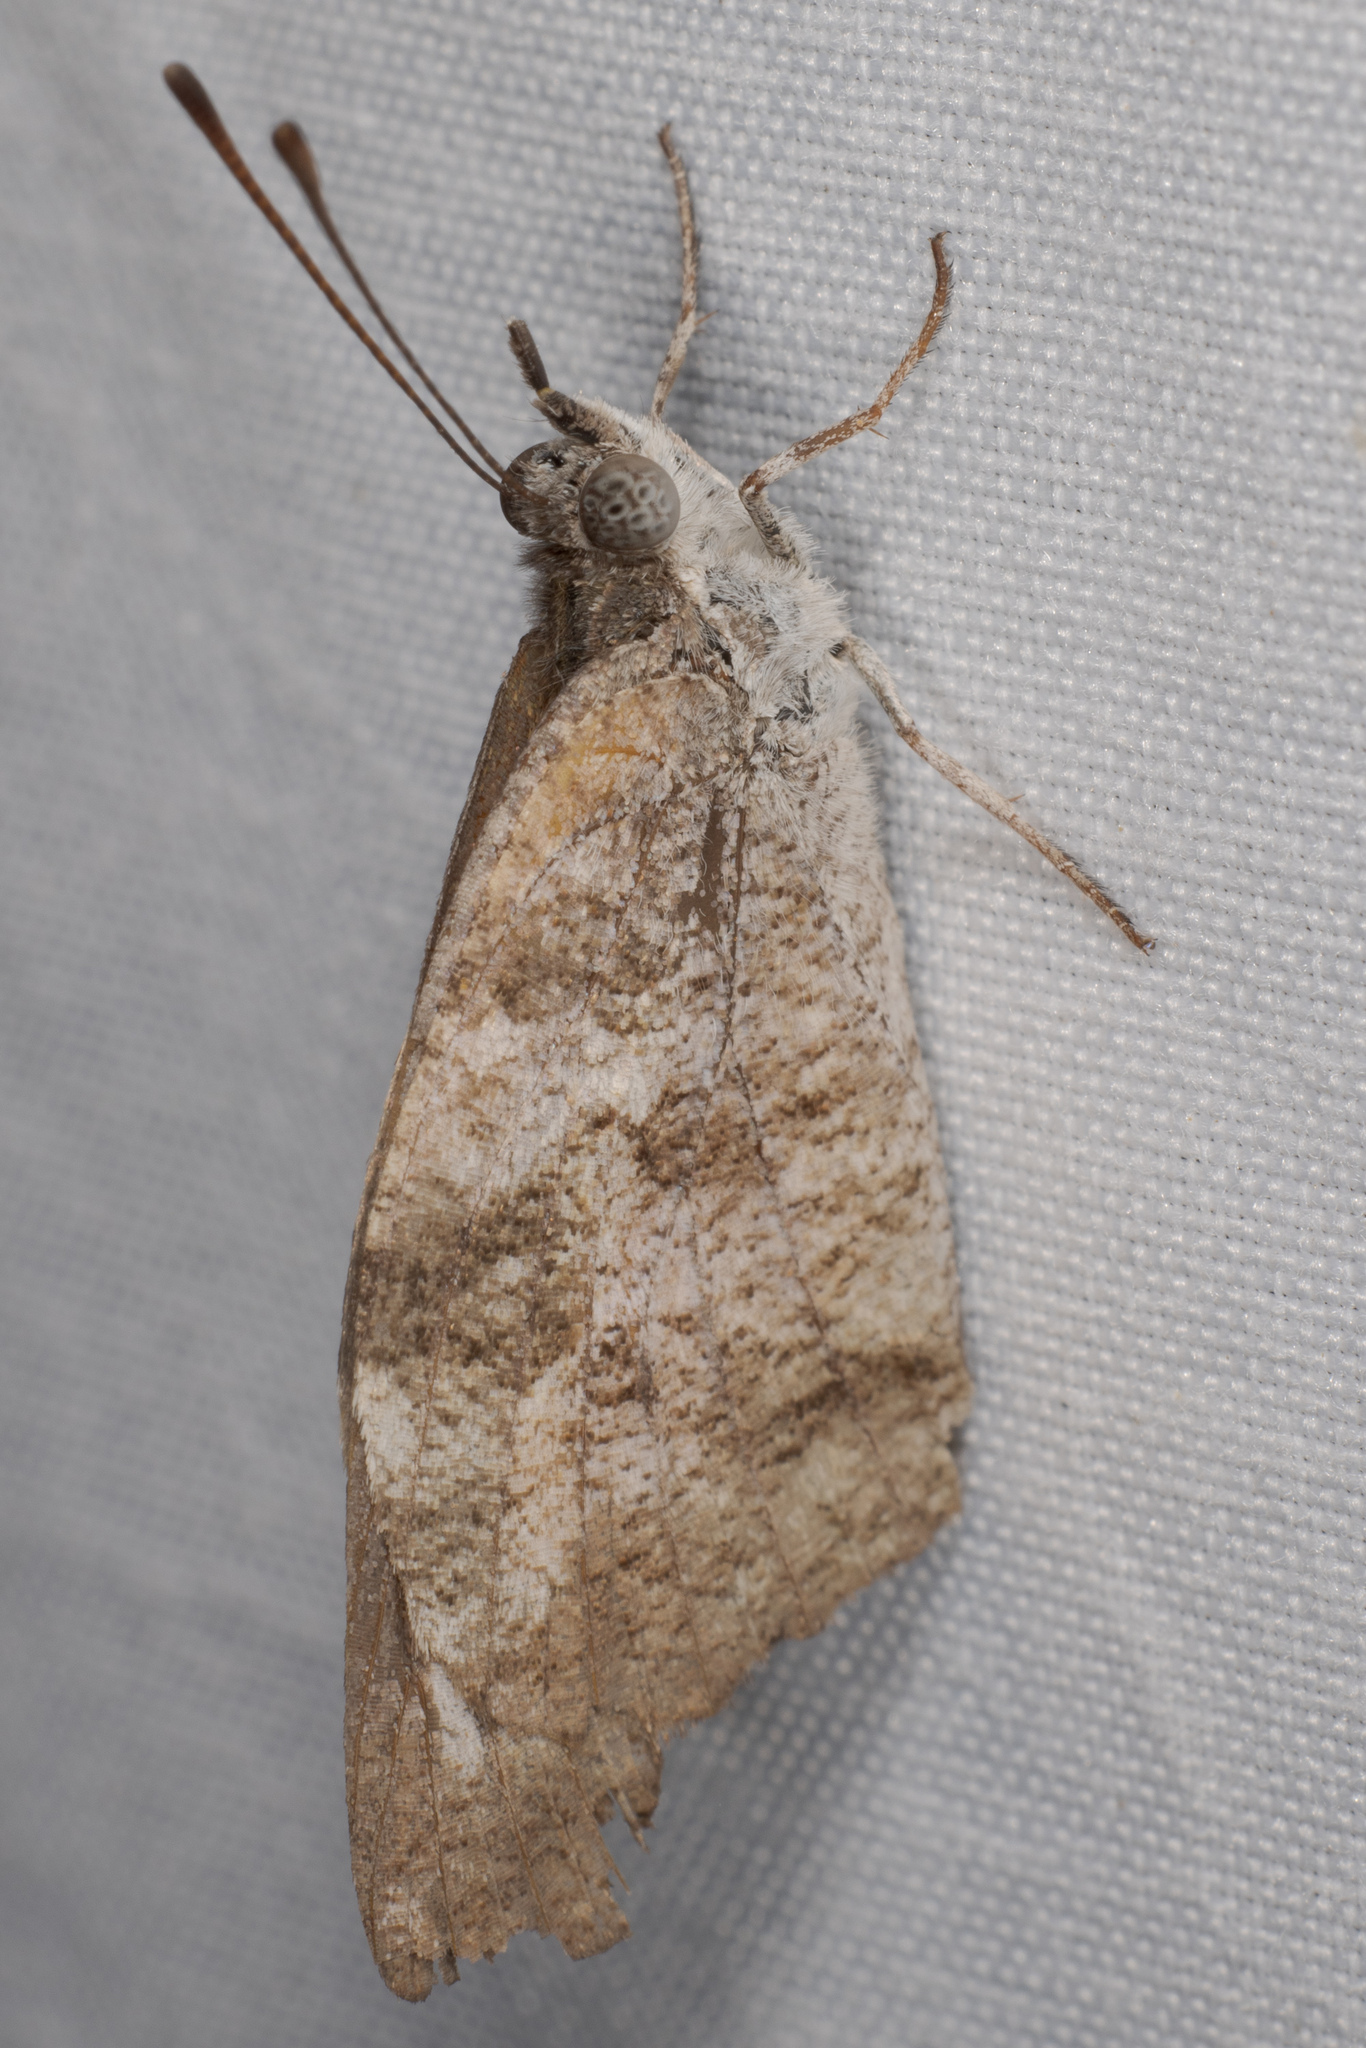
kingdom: Animalia
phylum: Arthropoda
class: Insecta
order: Lepidoptera
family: Nymphalidae
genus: Libytheana
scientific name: Libytheana carinenta
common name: American snout
